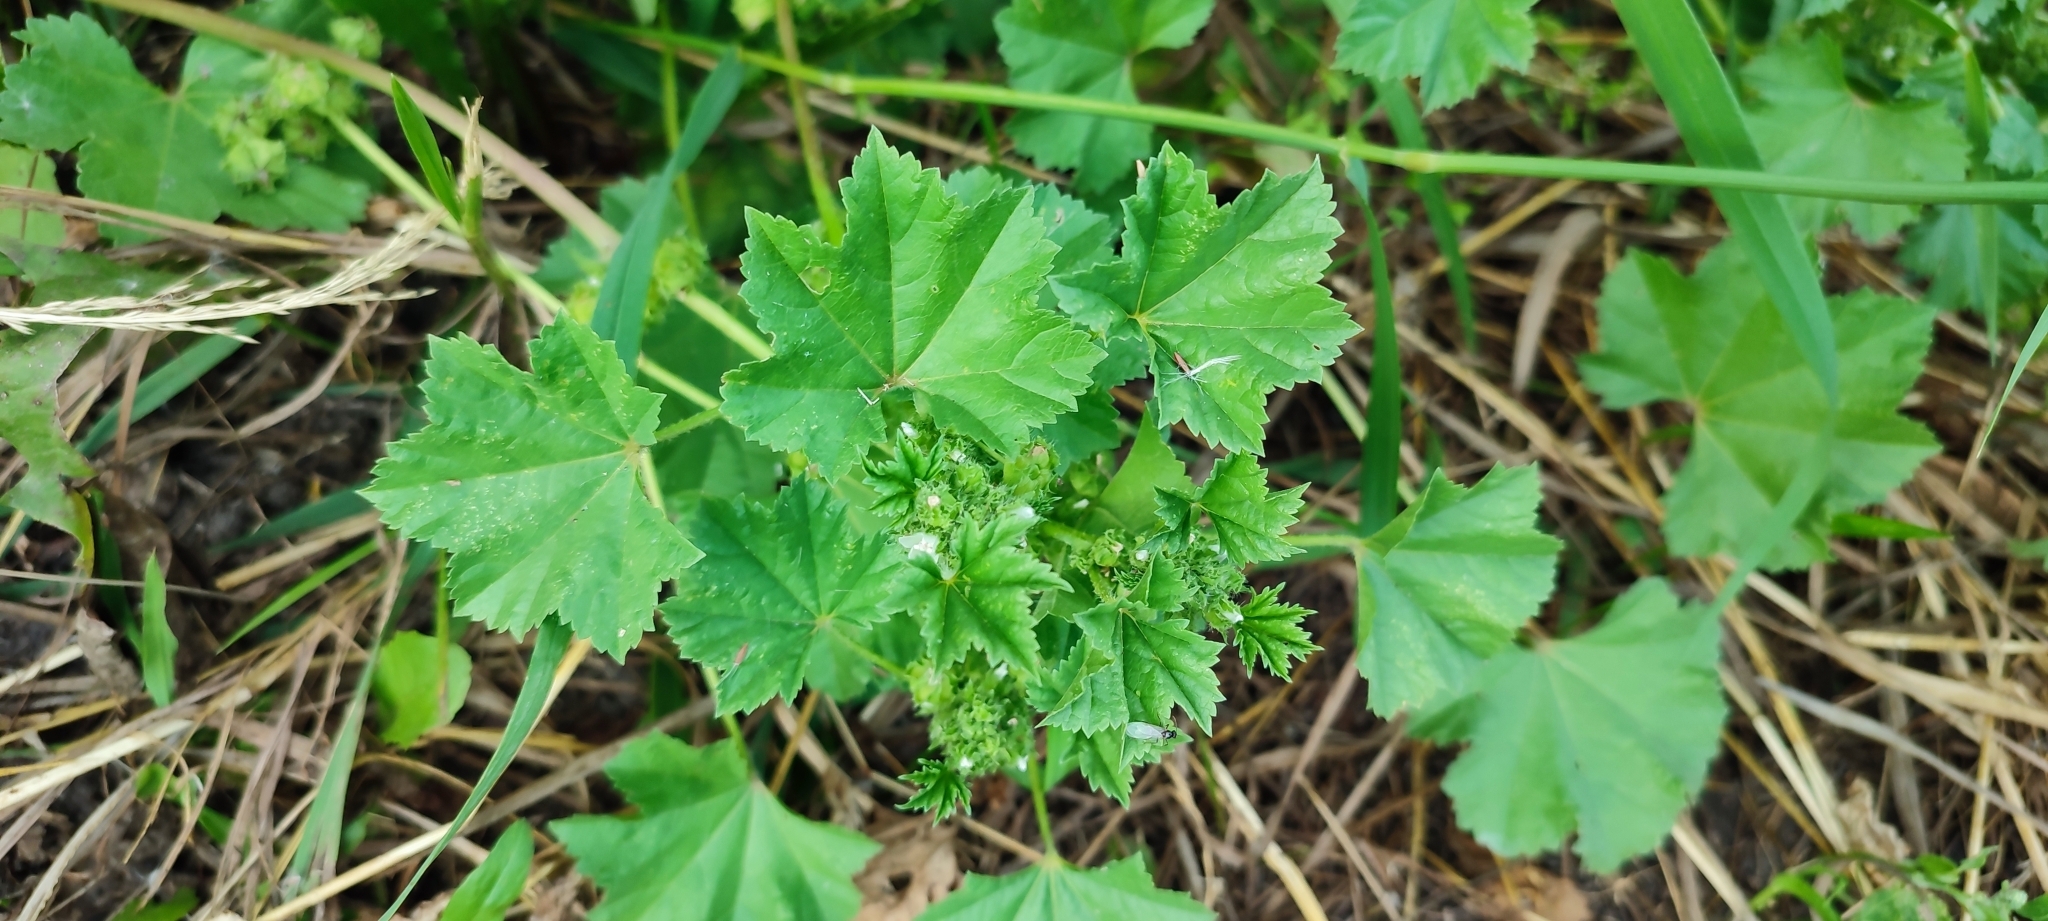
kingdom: Plantae
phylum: Tracheophyta
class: Magnoliopsida
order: Malvales
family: Malvaceae
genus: Malva
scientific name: Malva pusilla
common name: Small mallow
